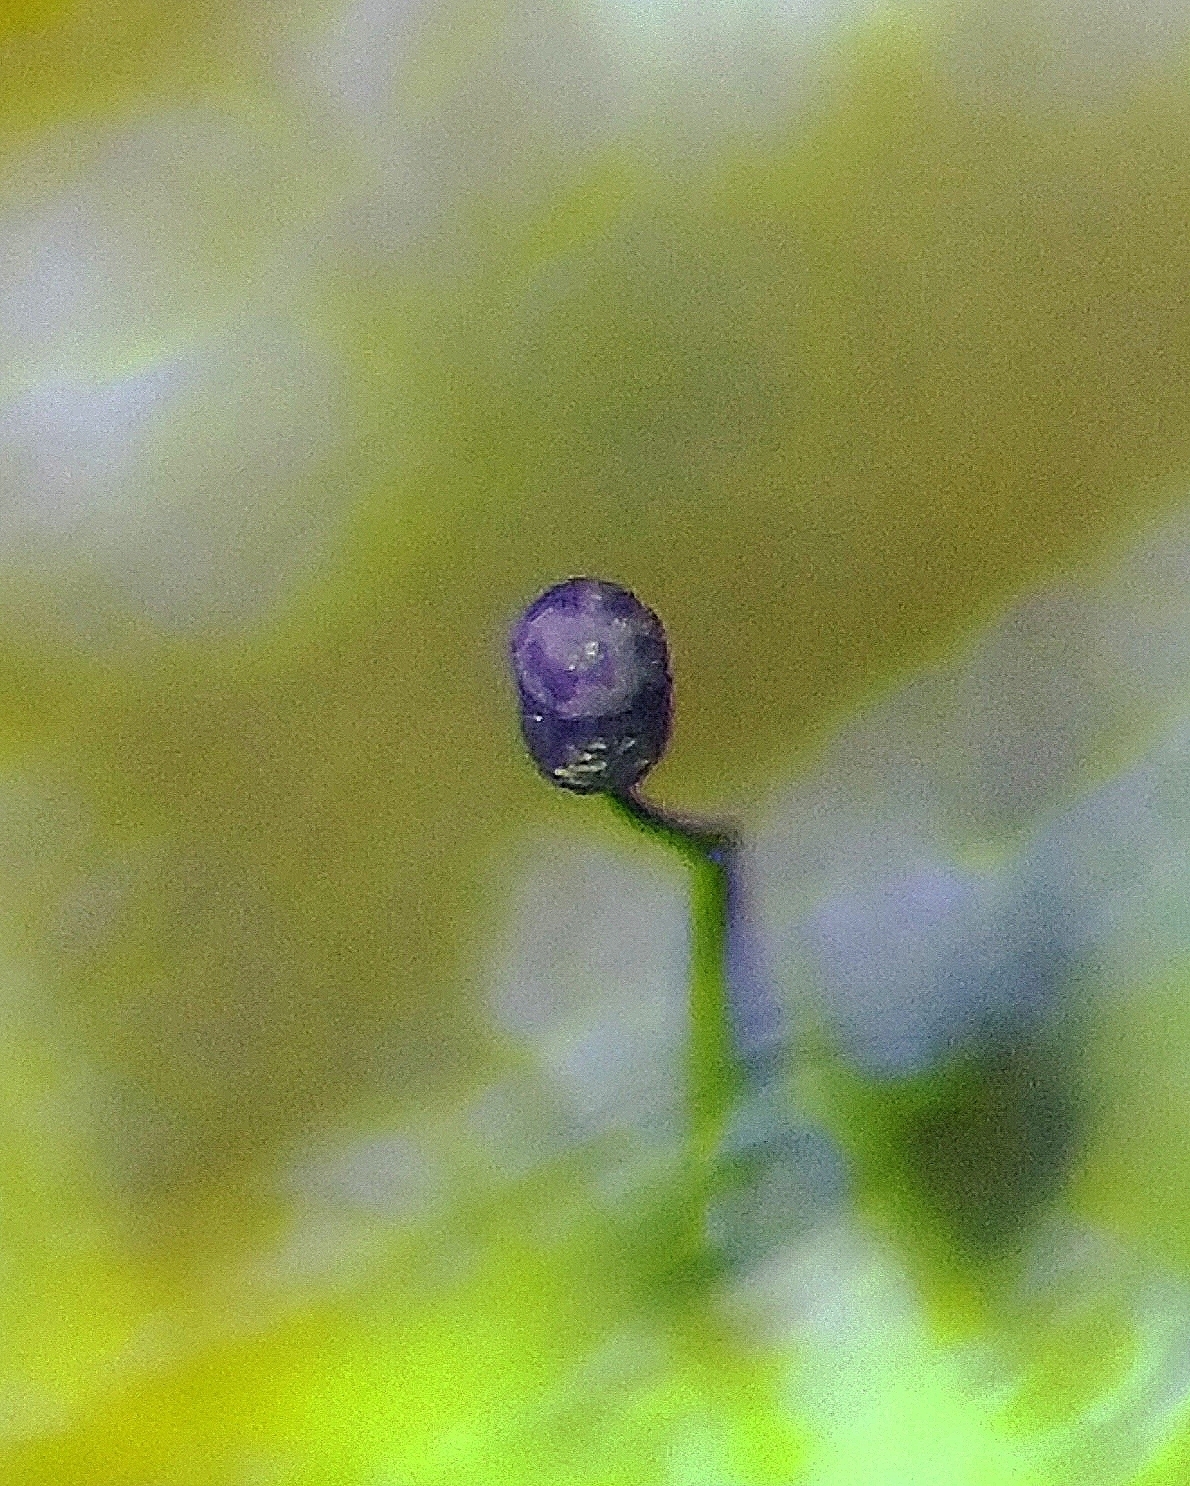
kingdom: Protozoa
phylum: Mycetozoa
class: Myxomycetes
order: Cribrariales
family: Cribrariaceae
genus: Cribraria
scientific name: Cribraria violacea
